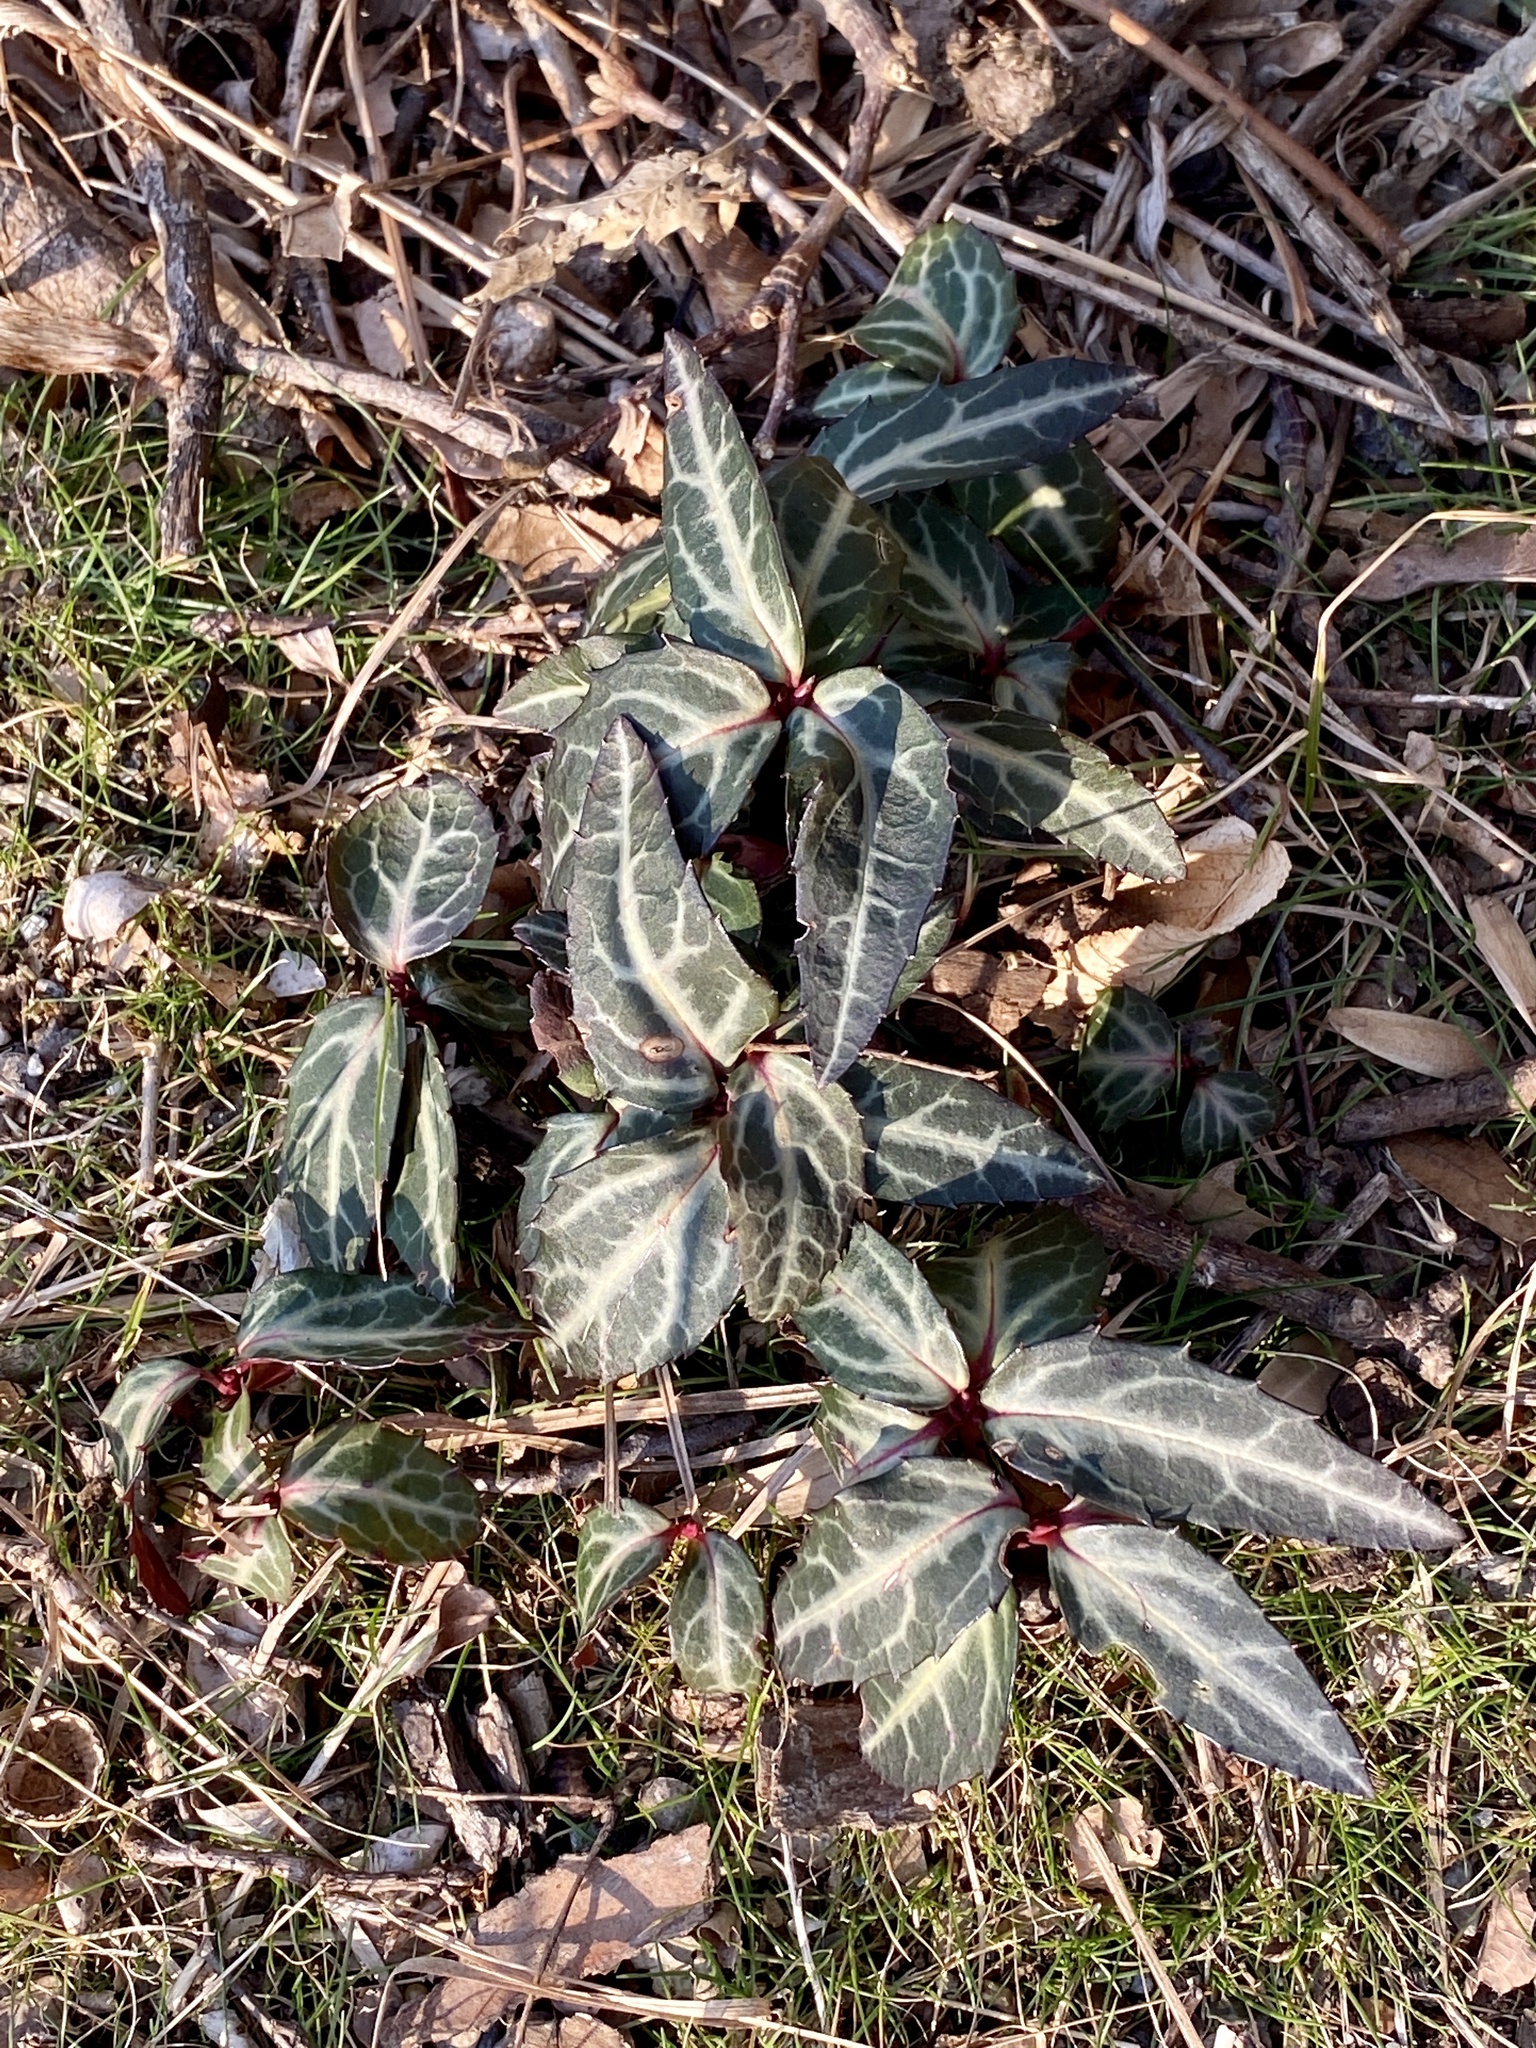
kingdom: Plantae
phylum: Tracheophyta
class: Magnoliopsida
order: Ericales
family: Ericaceae
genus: Chimaphila
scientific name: Chimaphila maculata
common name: Spotted pipsissewa
